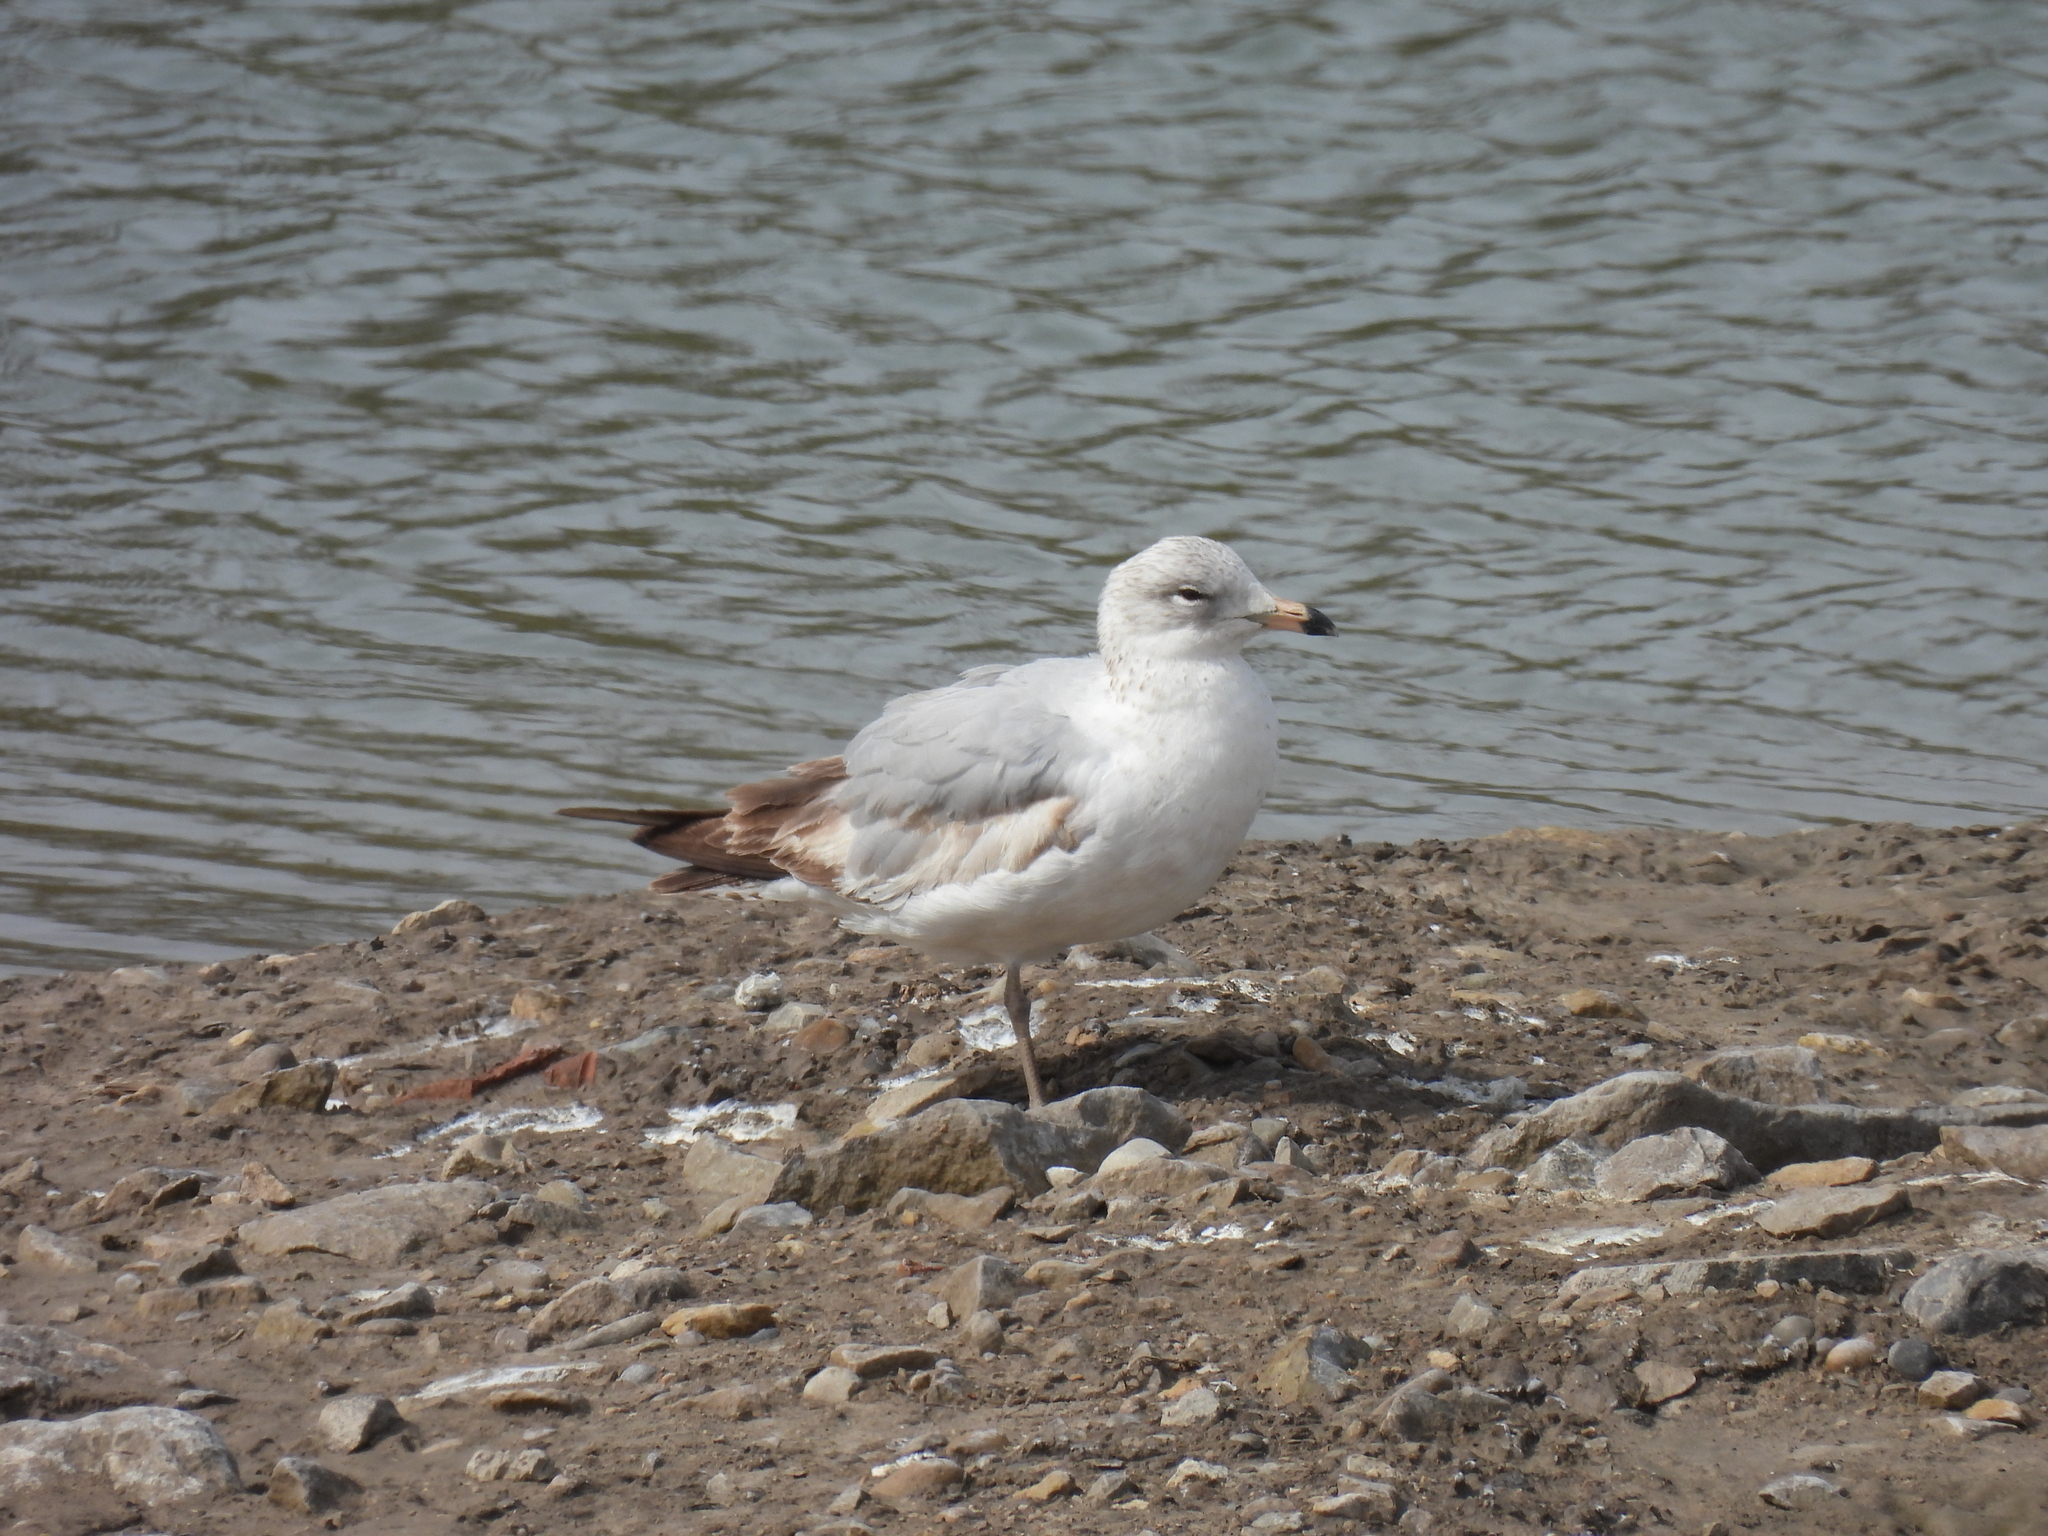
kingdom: Animalia
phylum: Chordata
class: Aves
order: Charadriiformes
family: Laridae
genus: Larus
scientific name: Larus delawarensis
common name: Ring-billed gull
